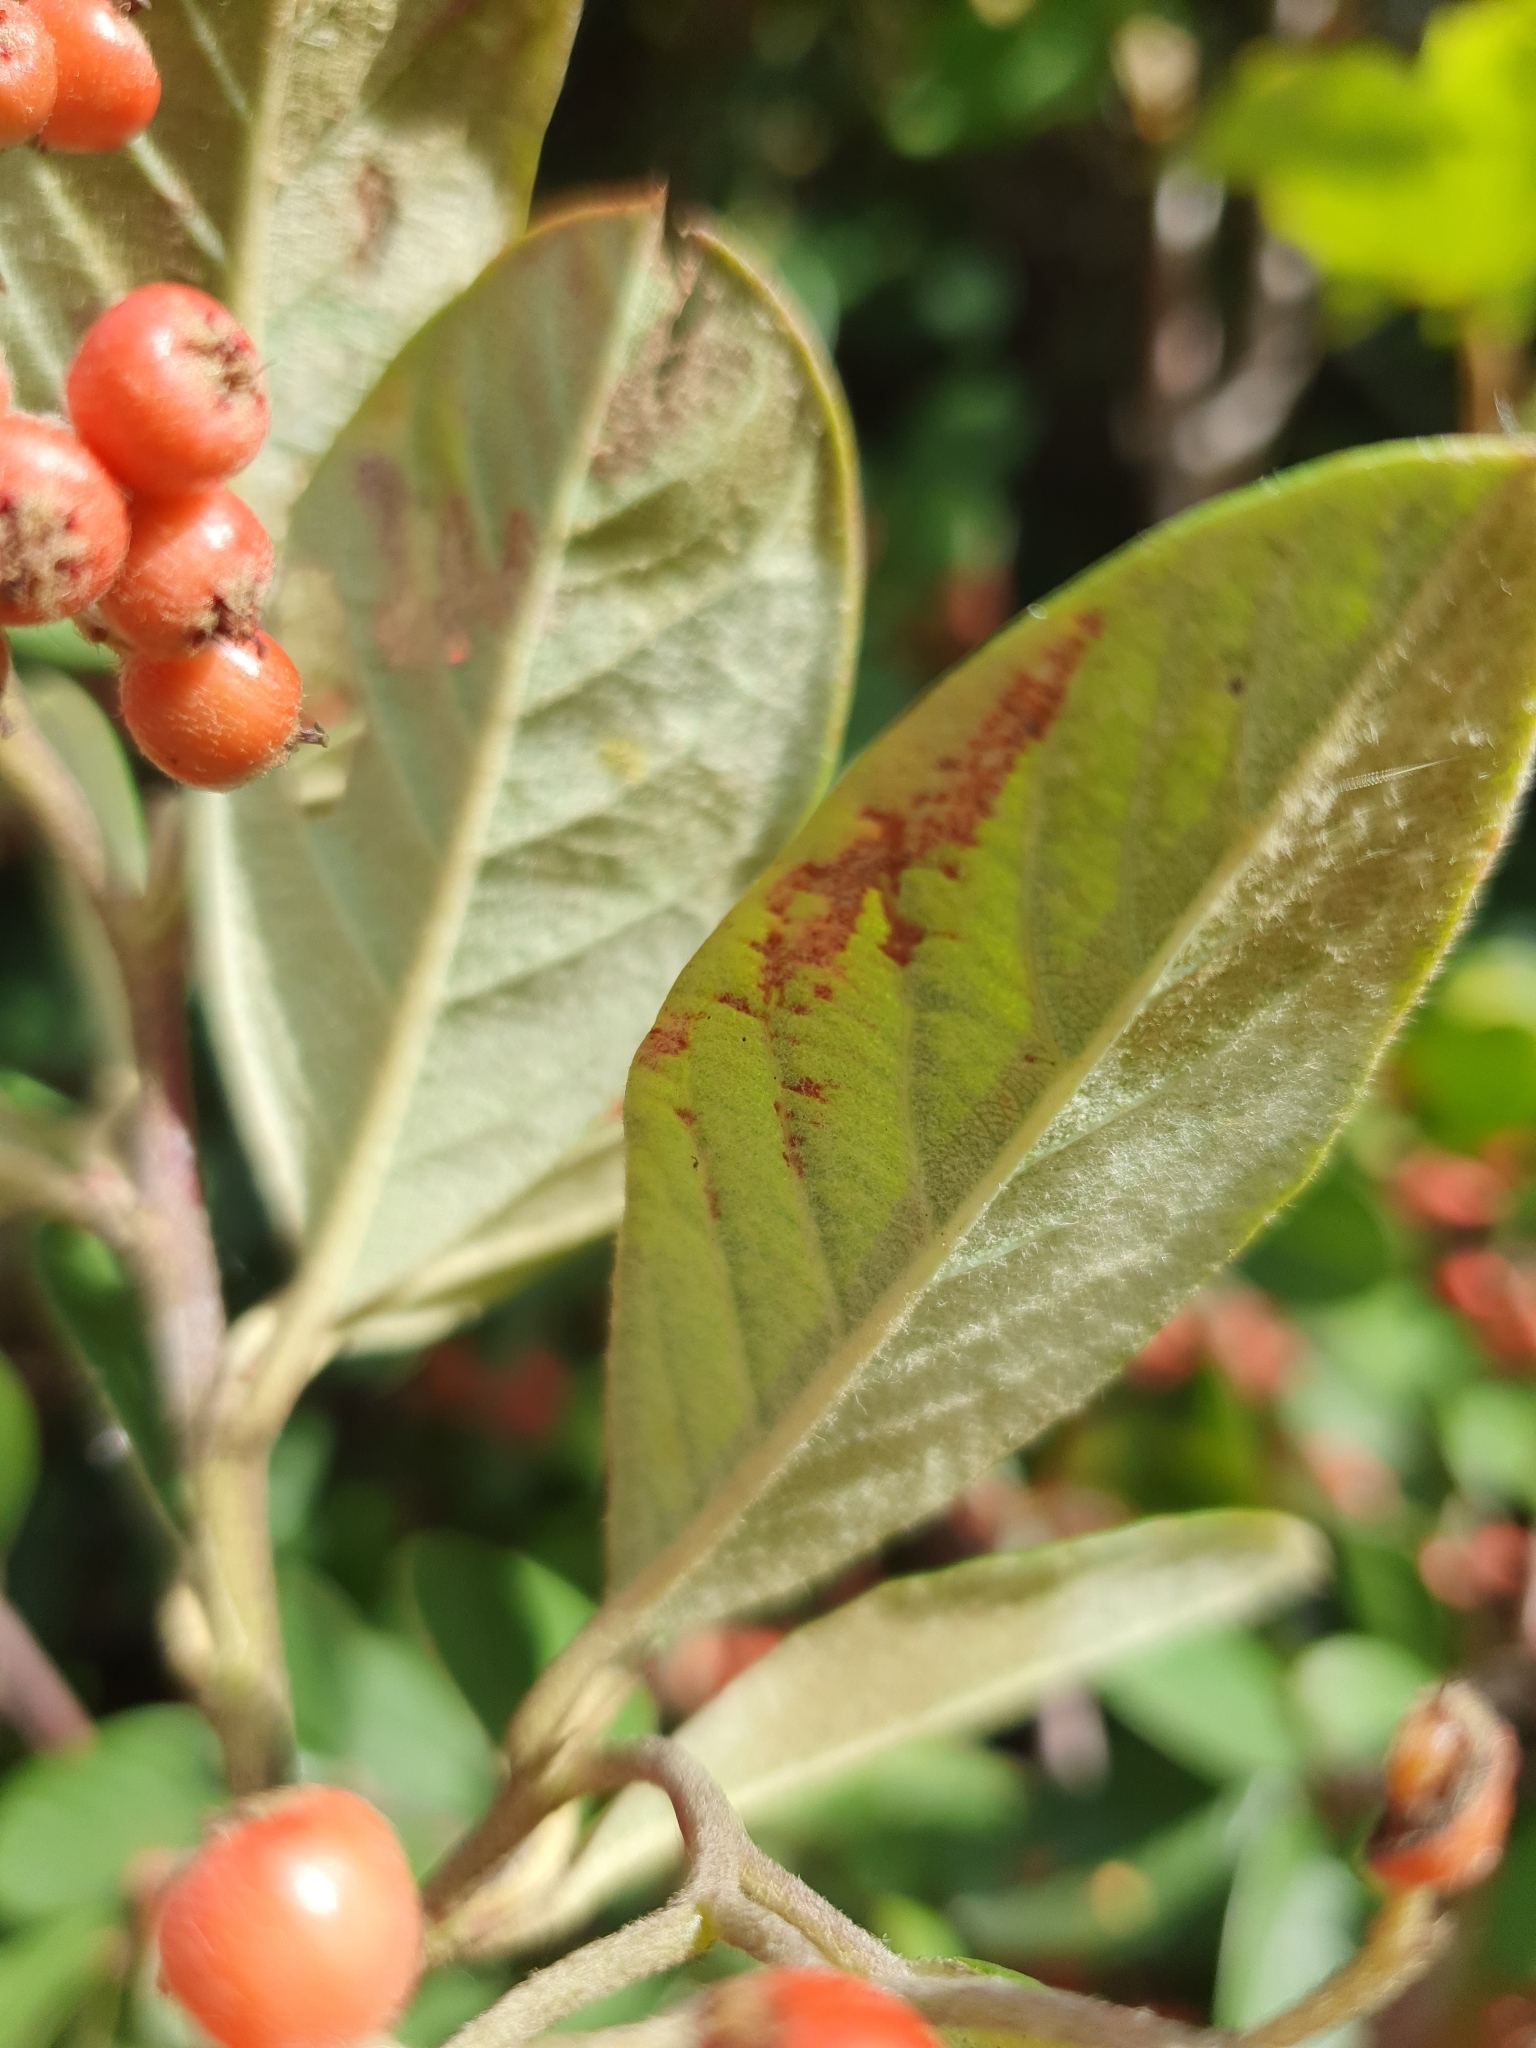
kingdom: Plantae
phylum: Tracheophyta
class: Magnoliopsida
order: Rosales
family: Rosaceae
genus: Cotoneaster
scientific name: Cotoneaster coriaceus
